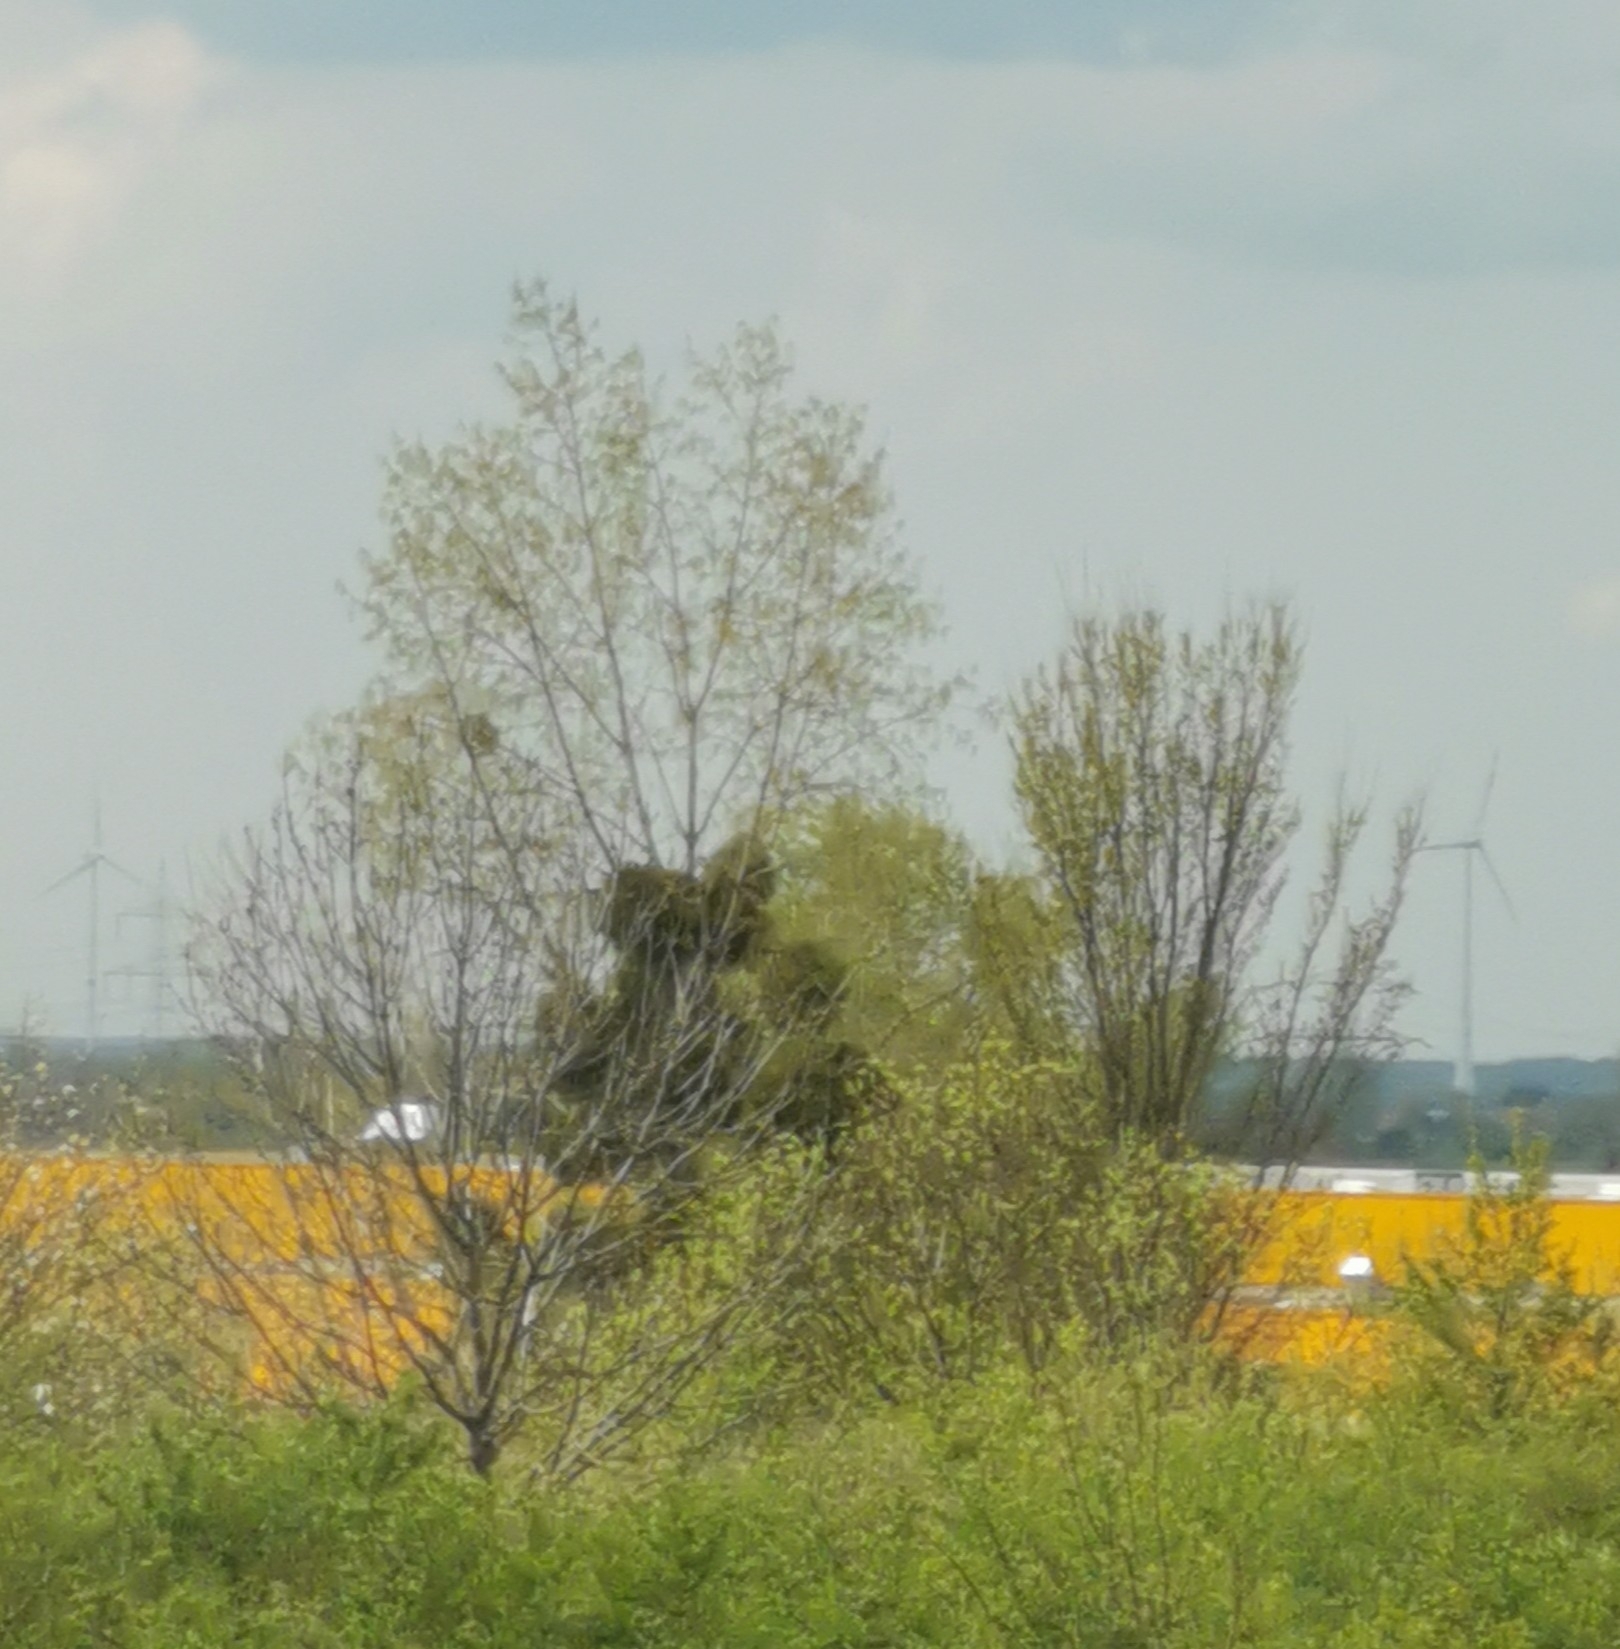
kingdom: Plantae
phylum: Tracheophyta
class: Magnoliopsida
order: Santalales
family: Viscaceae
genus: Viscum
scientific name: Viscum album
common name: Mistletoe
